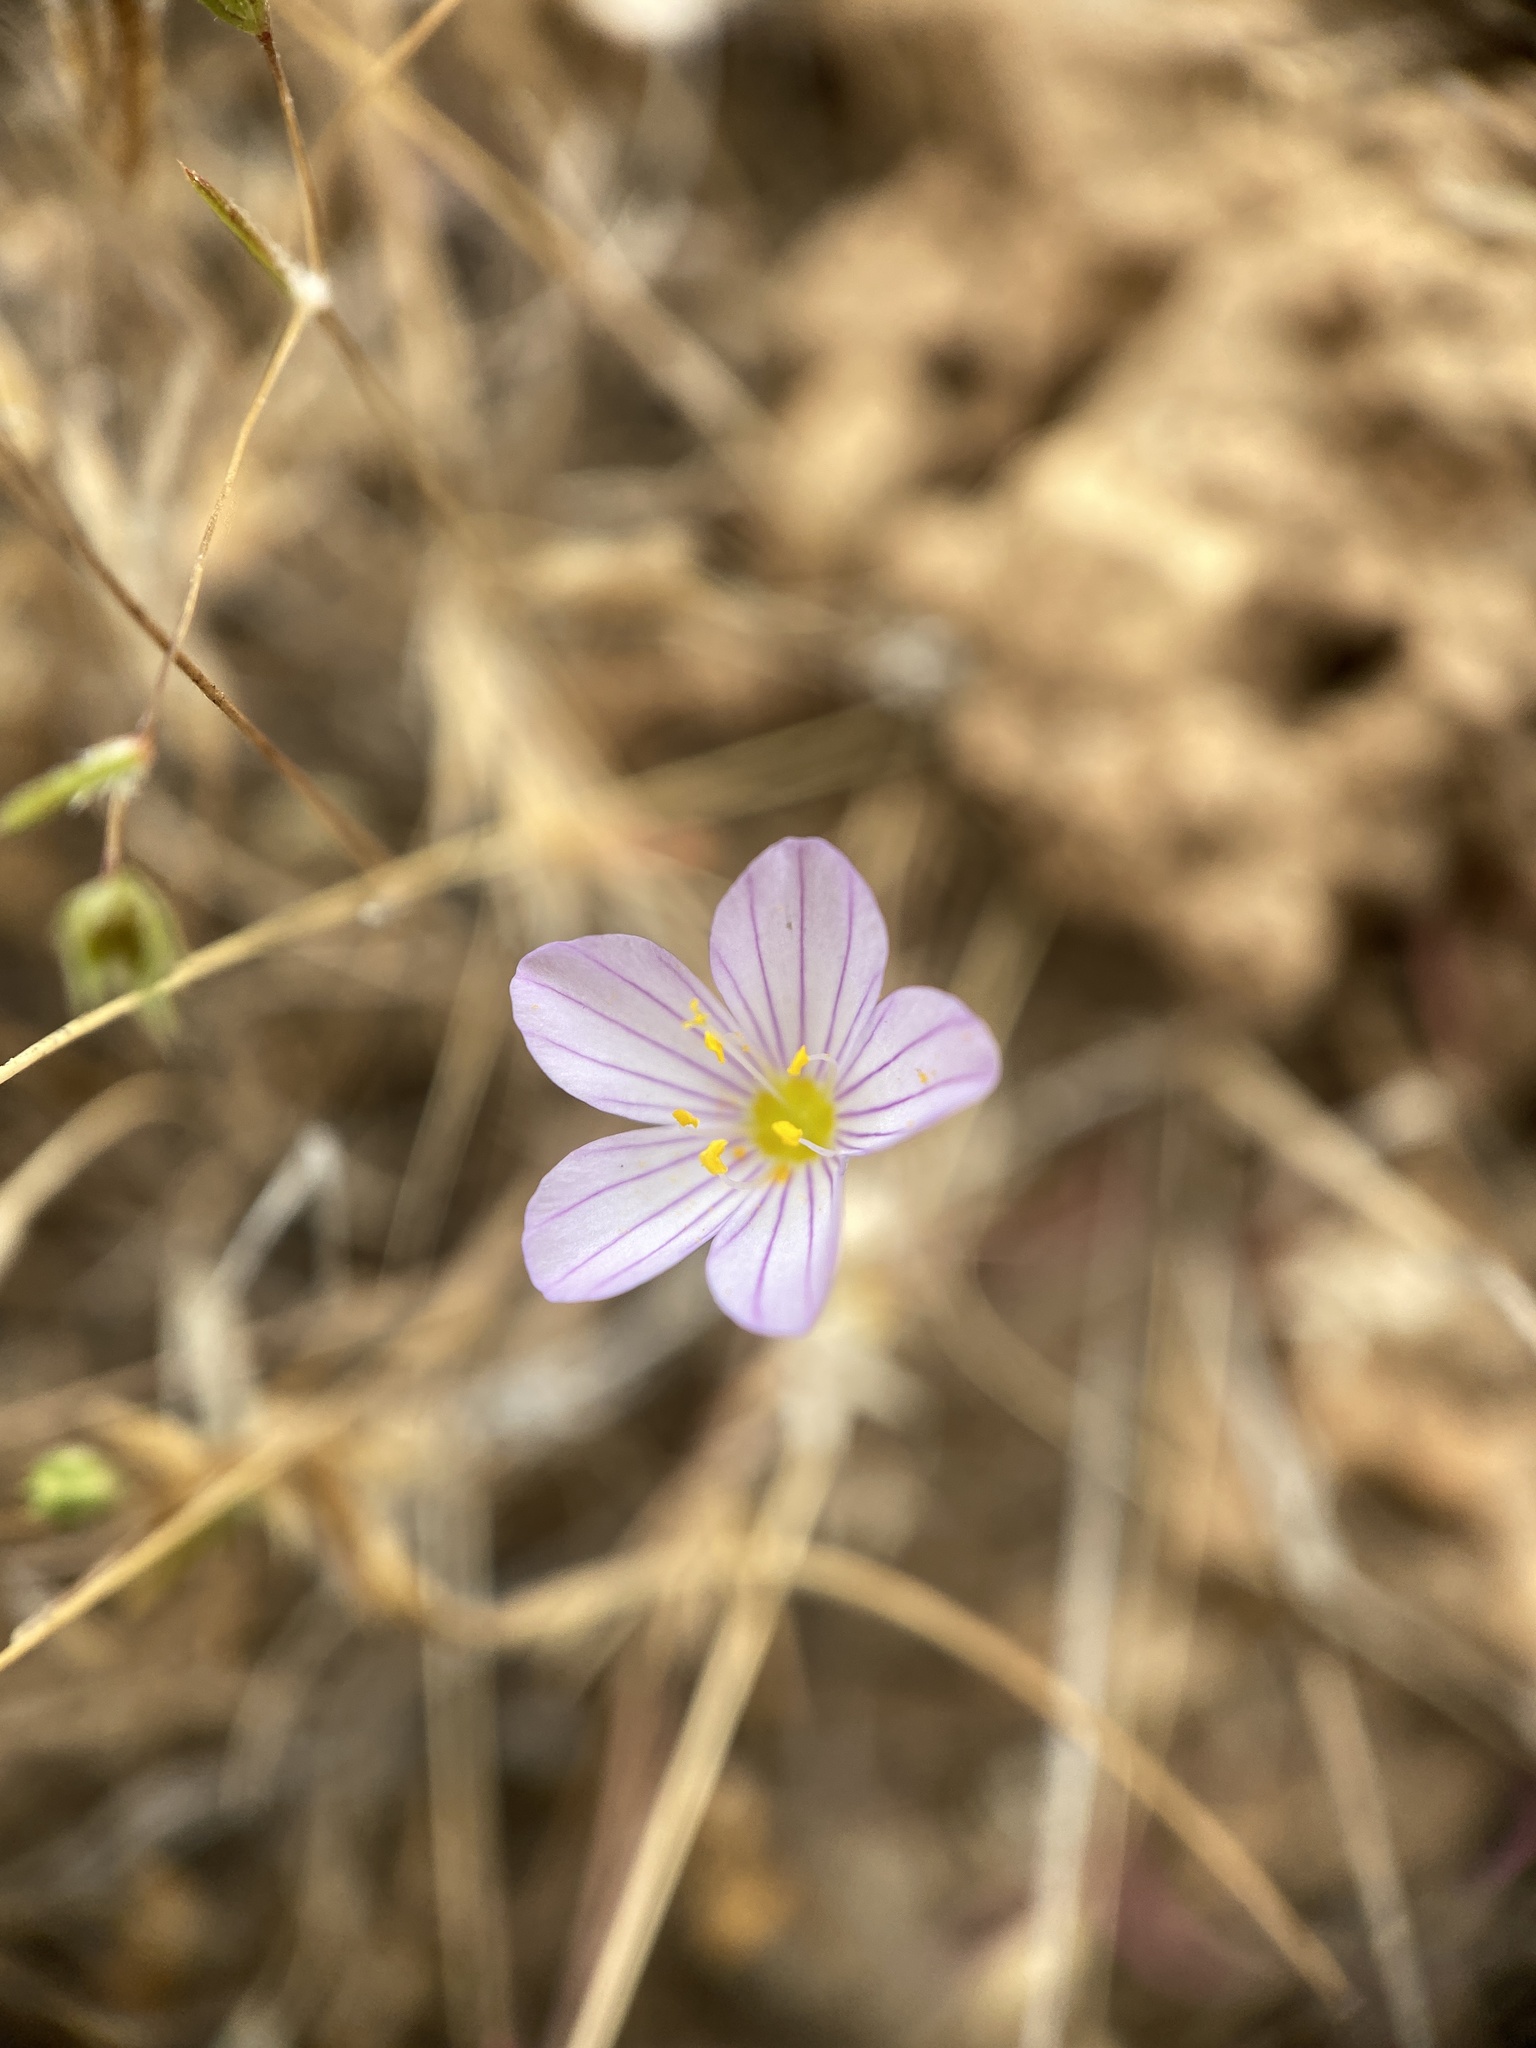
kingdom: Plantae
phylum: Tracheophyta
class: Magnoliopsida
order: Ericales
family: Polemoniaceae
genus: Leptosiphon
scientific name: Leptosiphon liniflorus
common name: Narrowflower flaxflower
